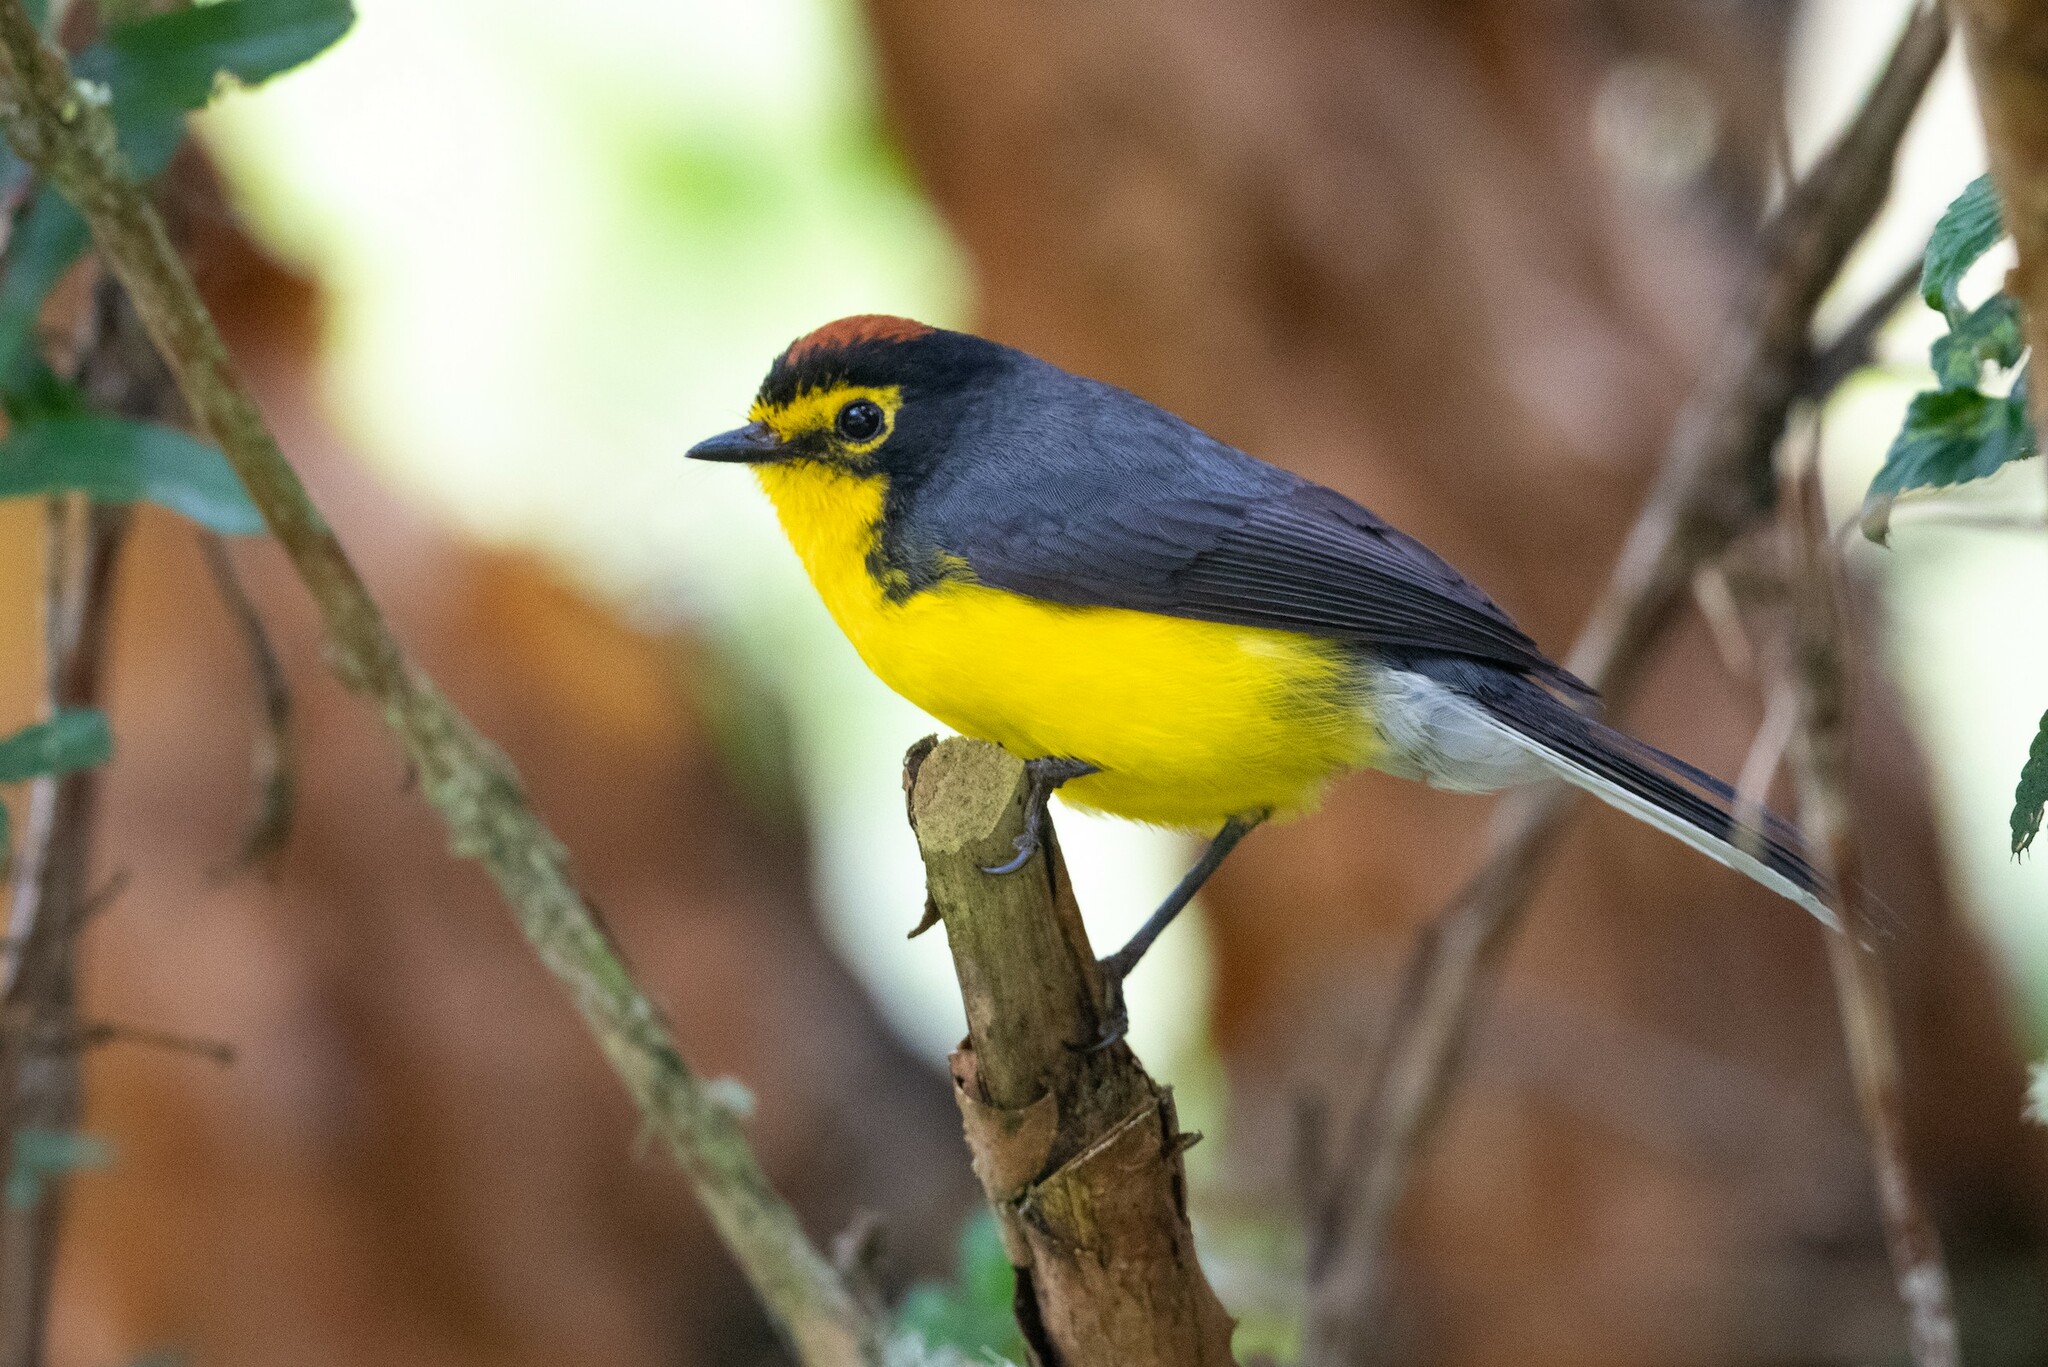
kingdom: Animalia
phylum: Chordata
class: Aves
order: Passeriformes
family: Parulidae
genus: Myioborus
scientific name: Myioborus melanocephalus
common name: Spectacled whitestart
